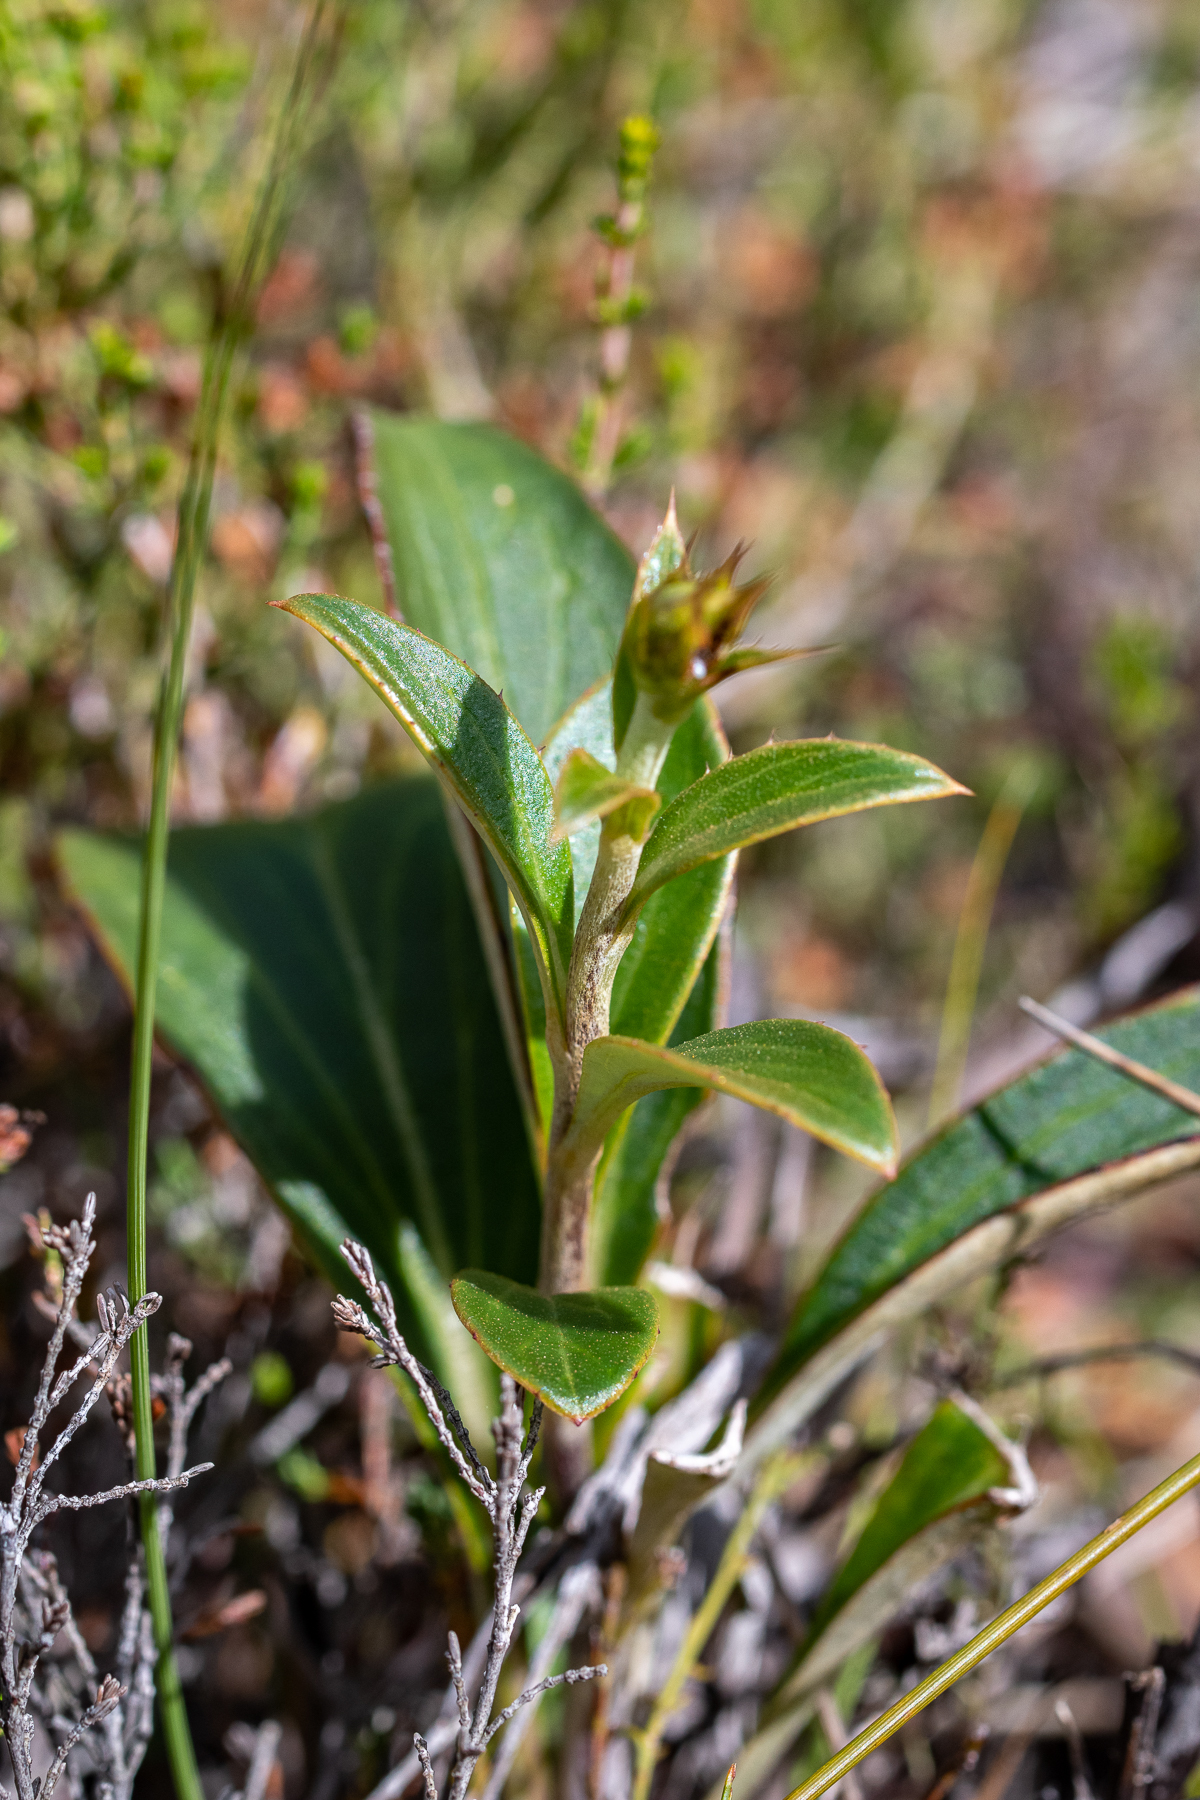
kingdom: Plantae
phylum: Tracheophyta
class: Magnoliopsida
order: Asterales
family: Asteraceae
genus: Berkheya
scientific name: Berkheya herbacea
